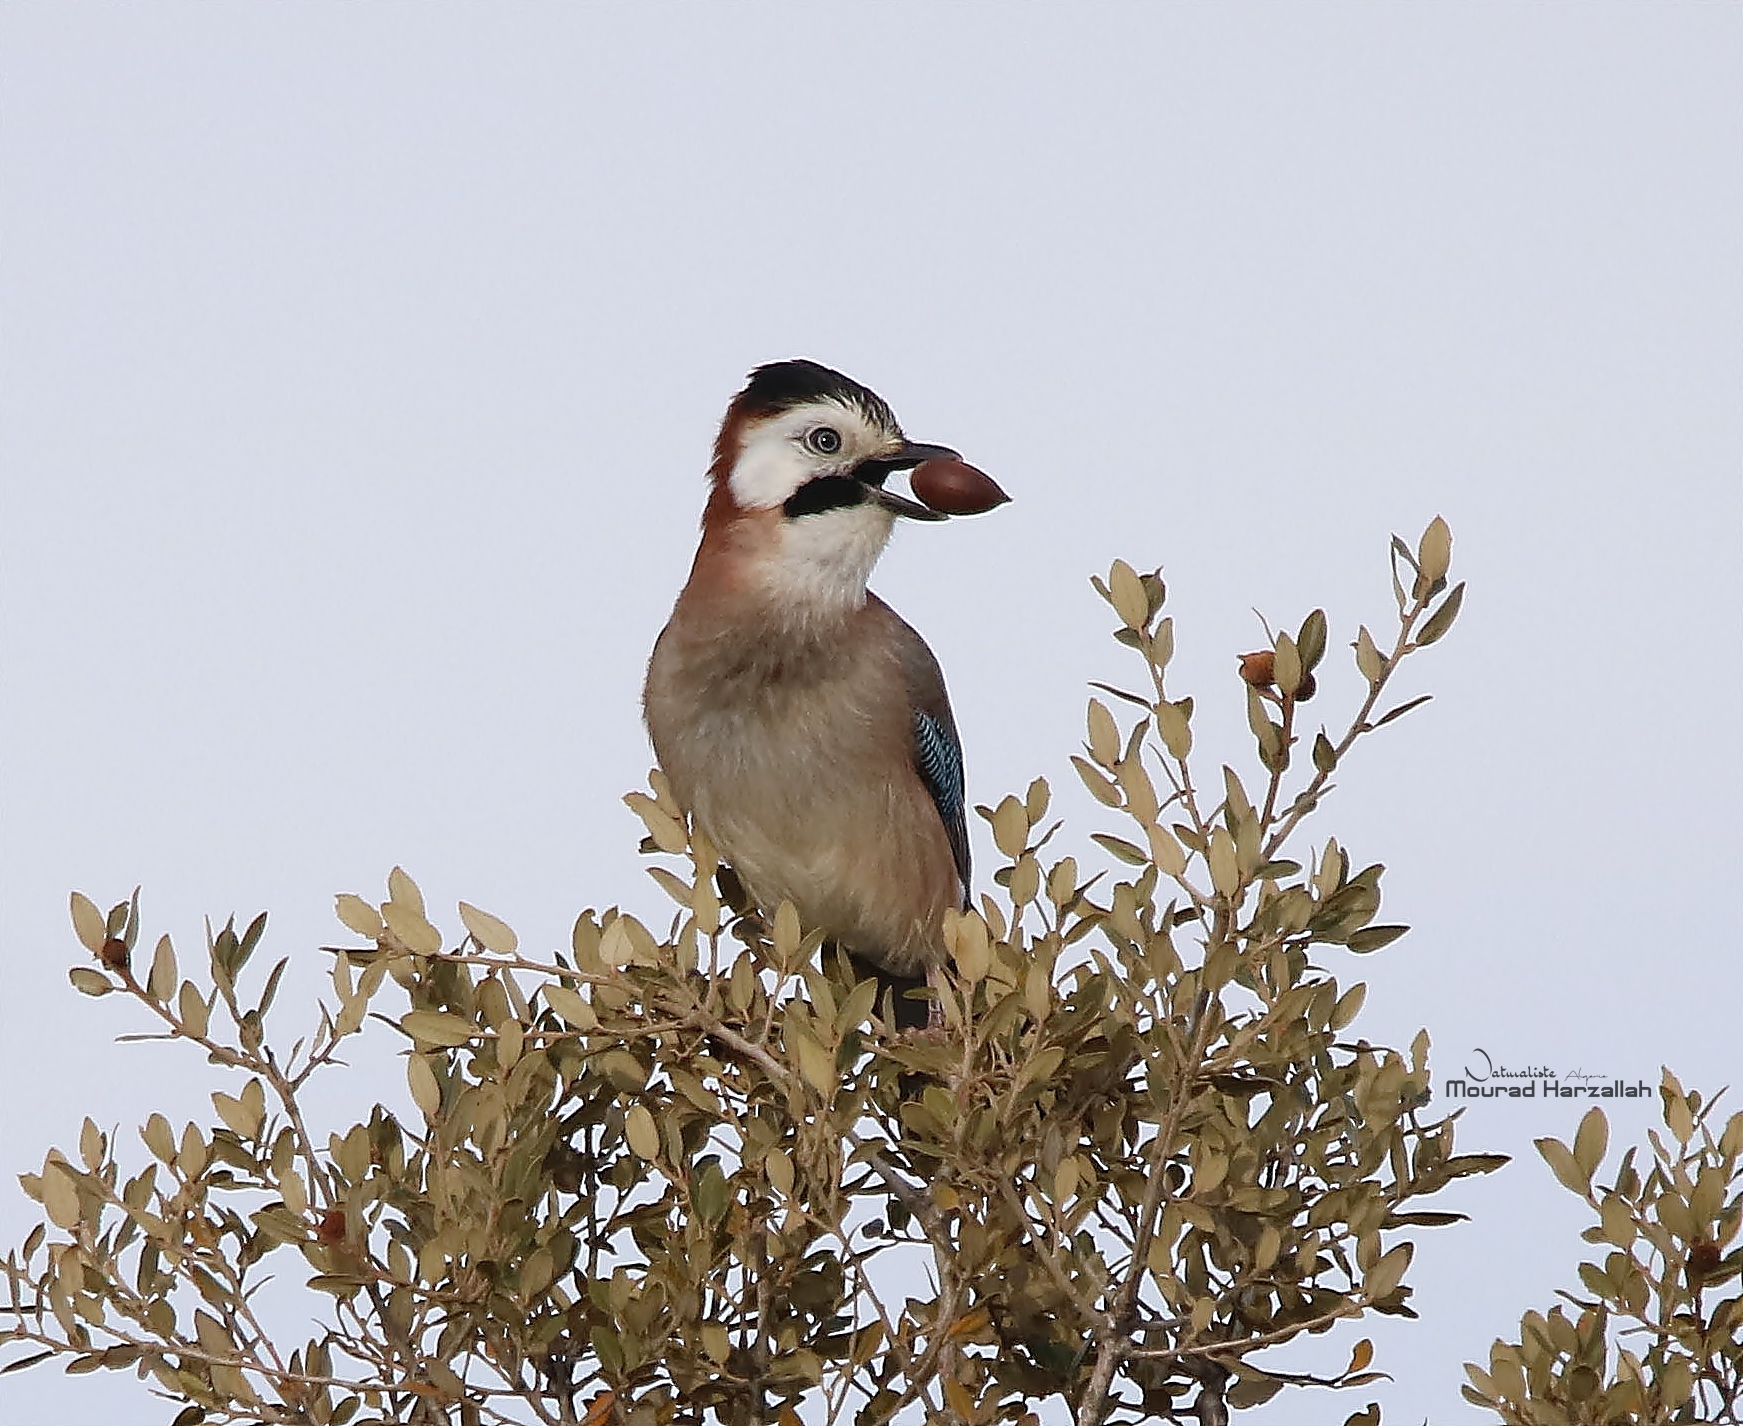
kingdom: Animalia
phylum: Chordata
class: Aves
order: Passeriformes
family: Corvidae
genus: Garrulus
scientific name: Garrulus glandarius
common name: Eurasian jay
